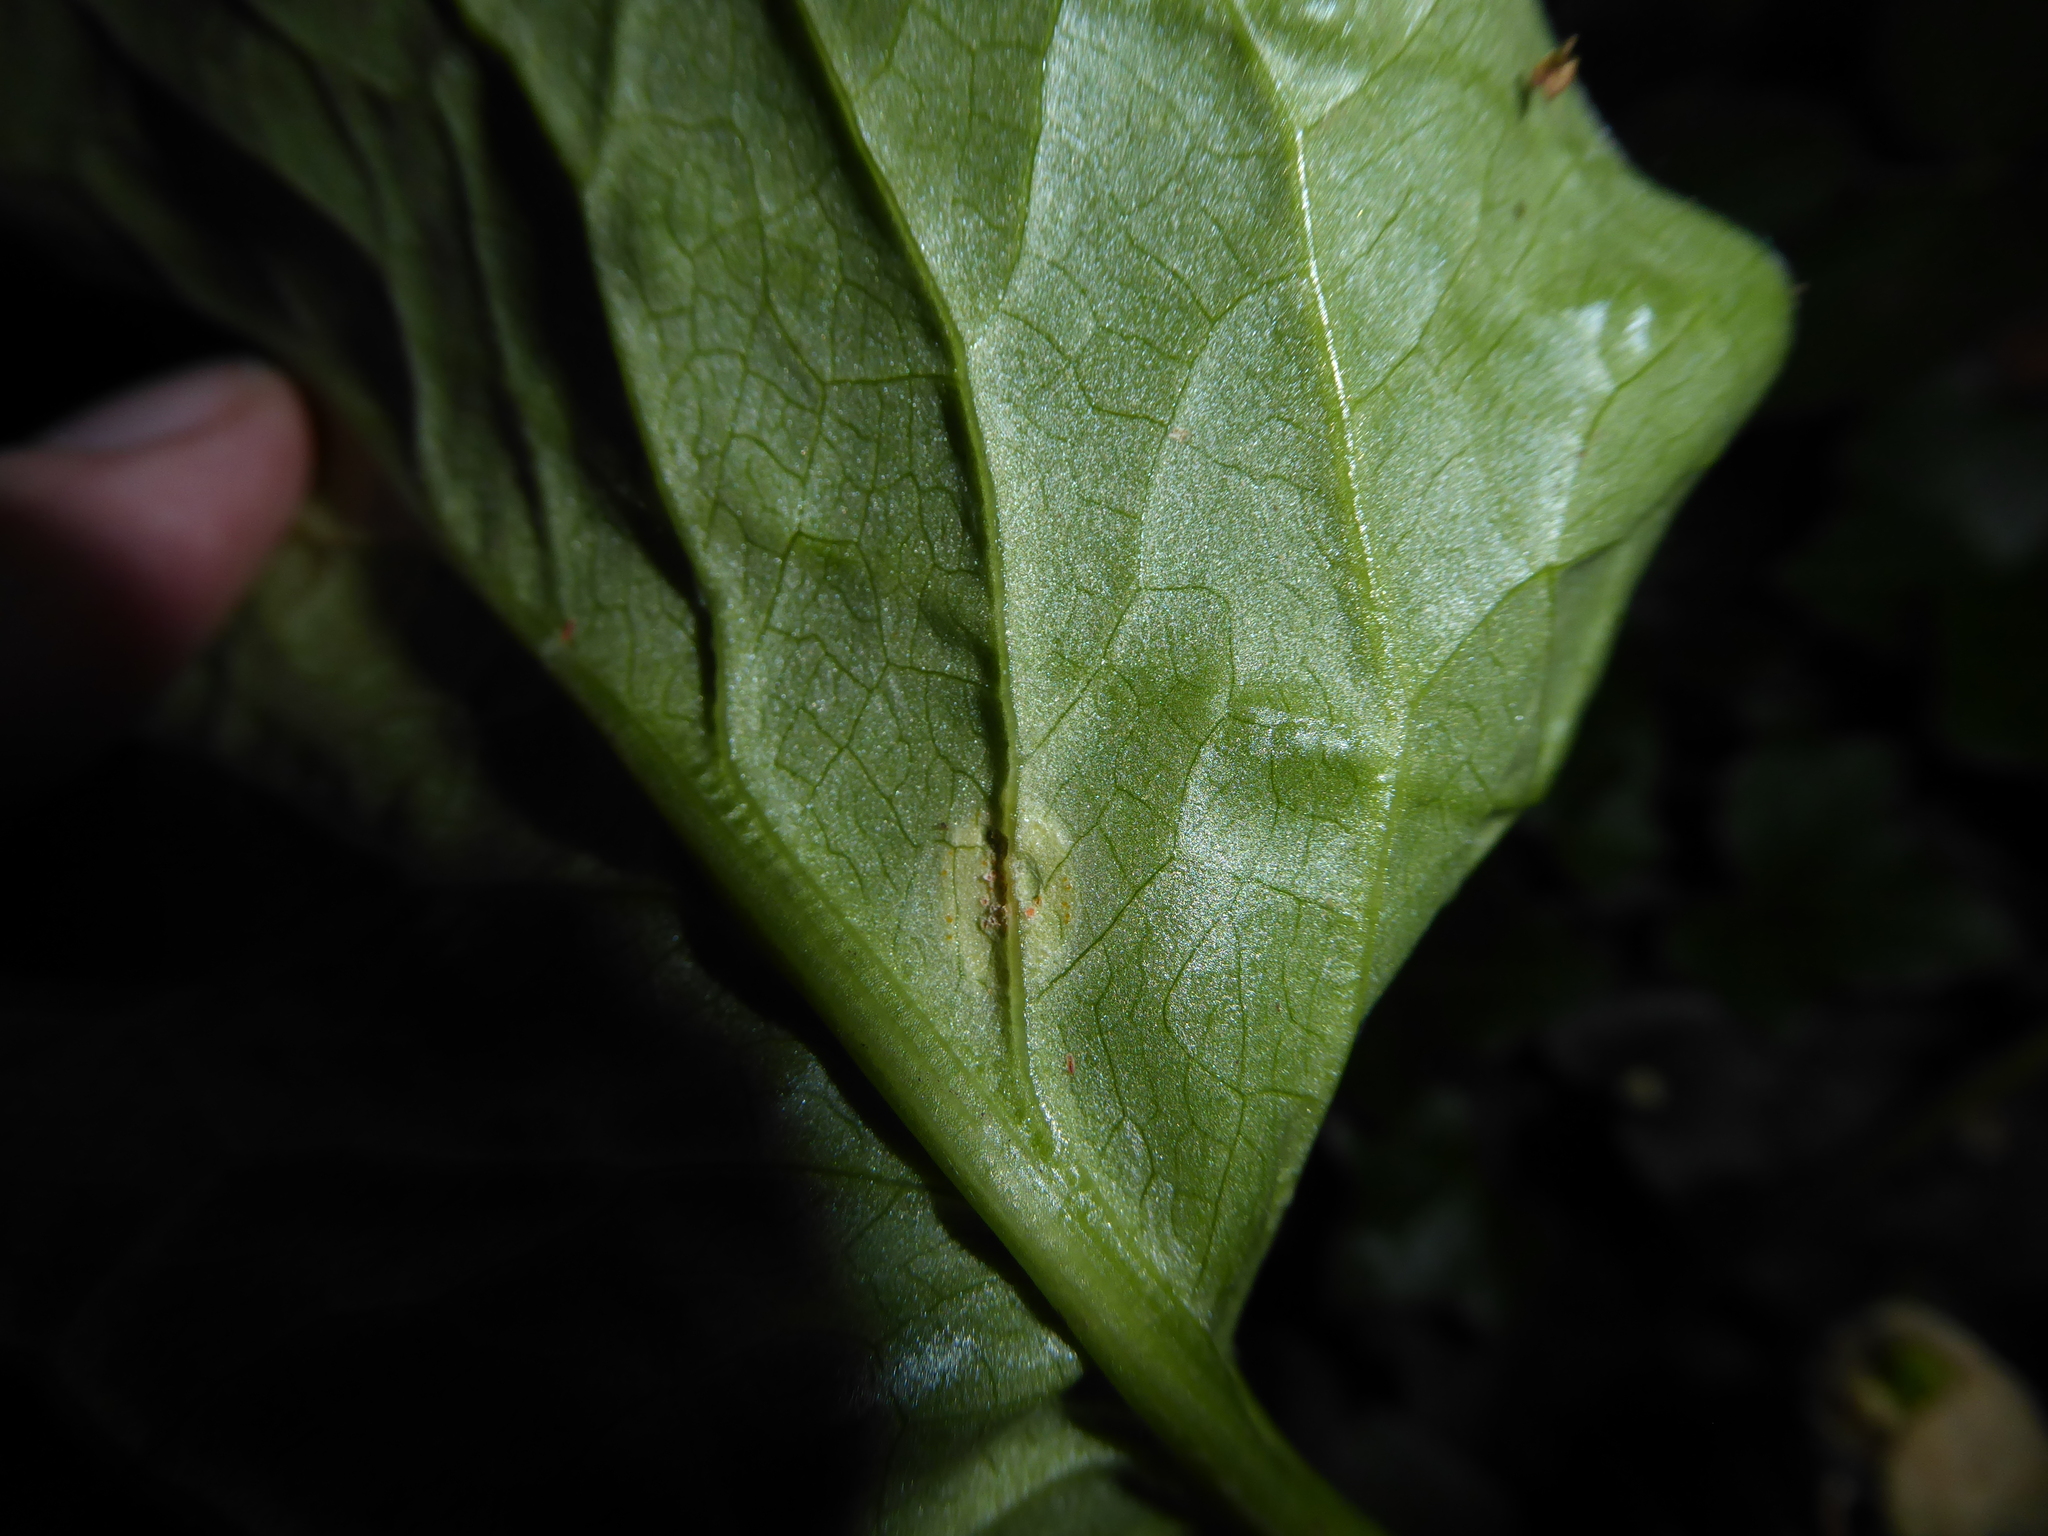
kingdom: Fungi
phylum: Basidiomycota
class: Pucciniomycetes
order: Pucciniales
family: Pucciniaceae
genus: Puccinia
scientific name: Puccinia sessilis
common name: Arum rust
